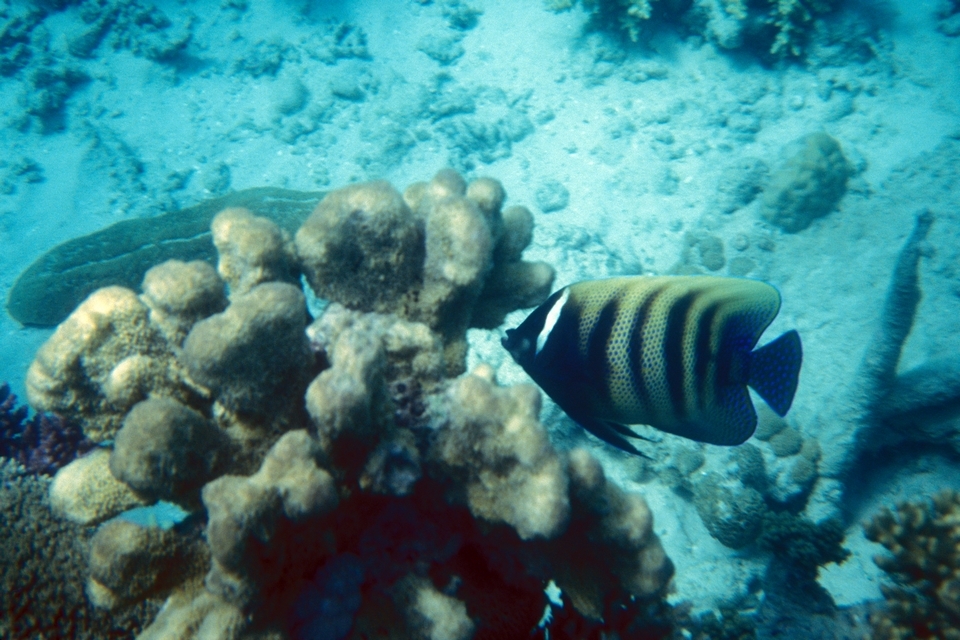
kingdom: Animalia
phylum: Chordata
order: Perciformes
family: Pomacanthidae
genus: Pomacanthus
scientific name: Pomacanthus sexstriatus
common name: Six-banded angelfish
